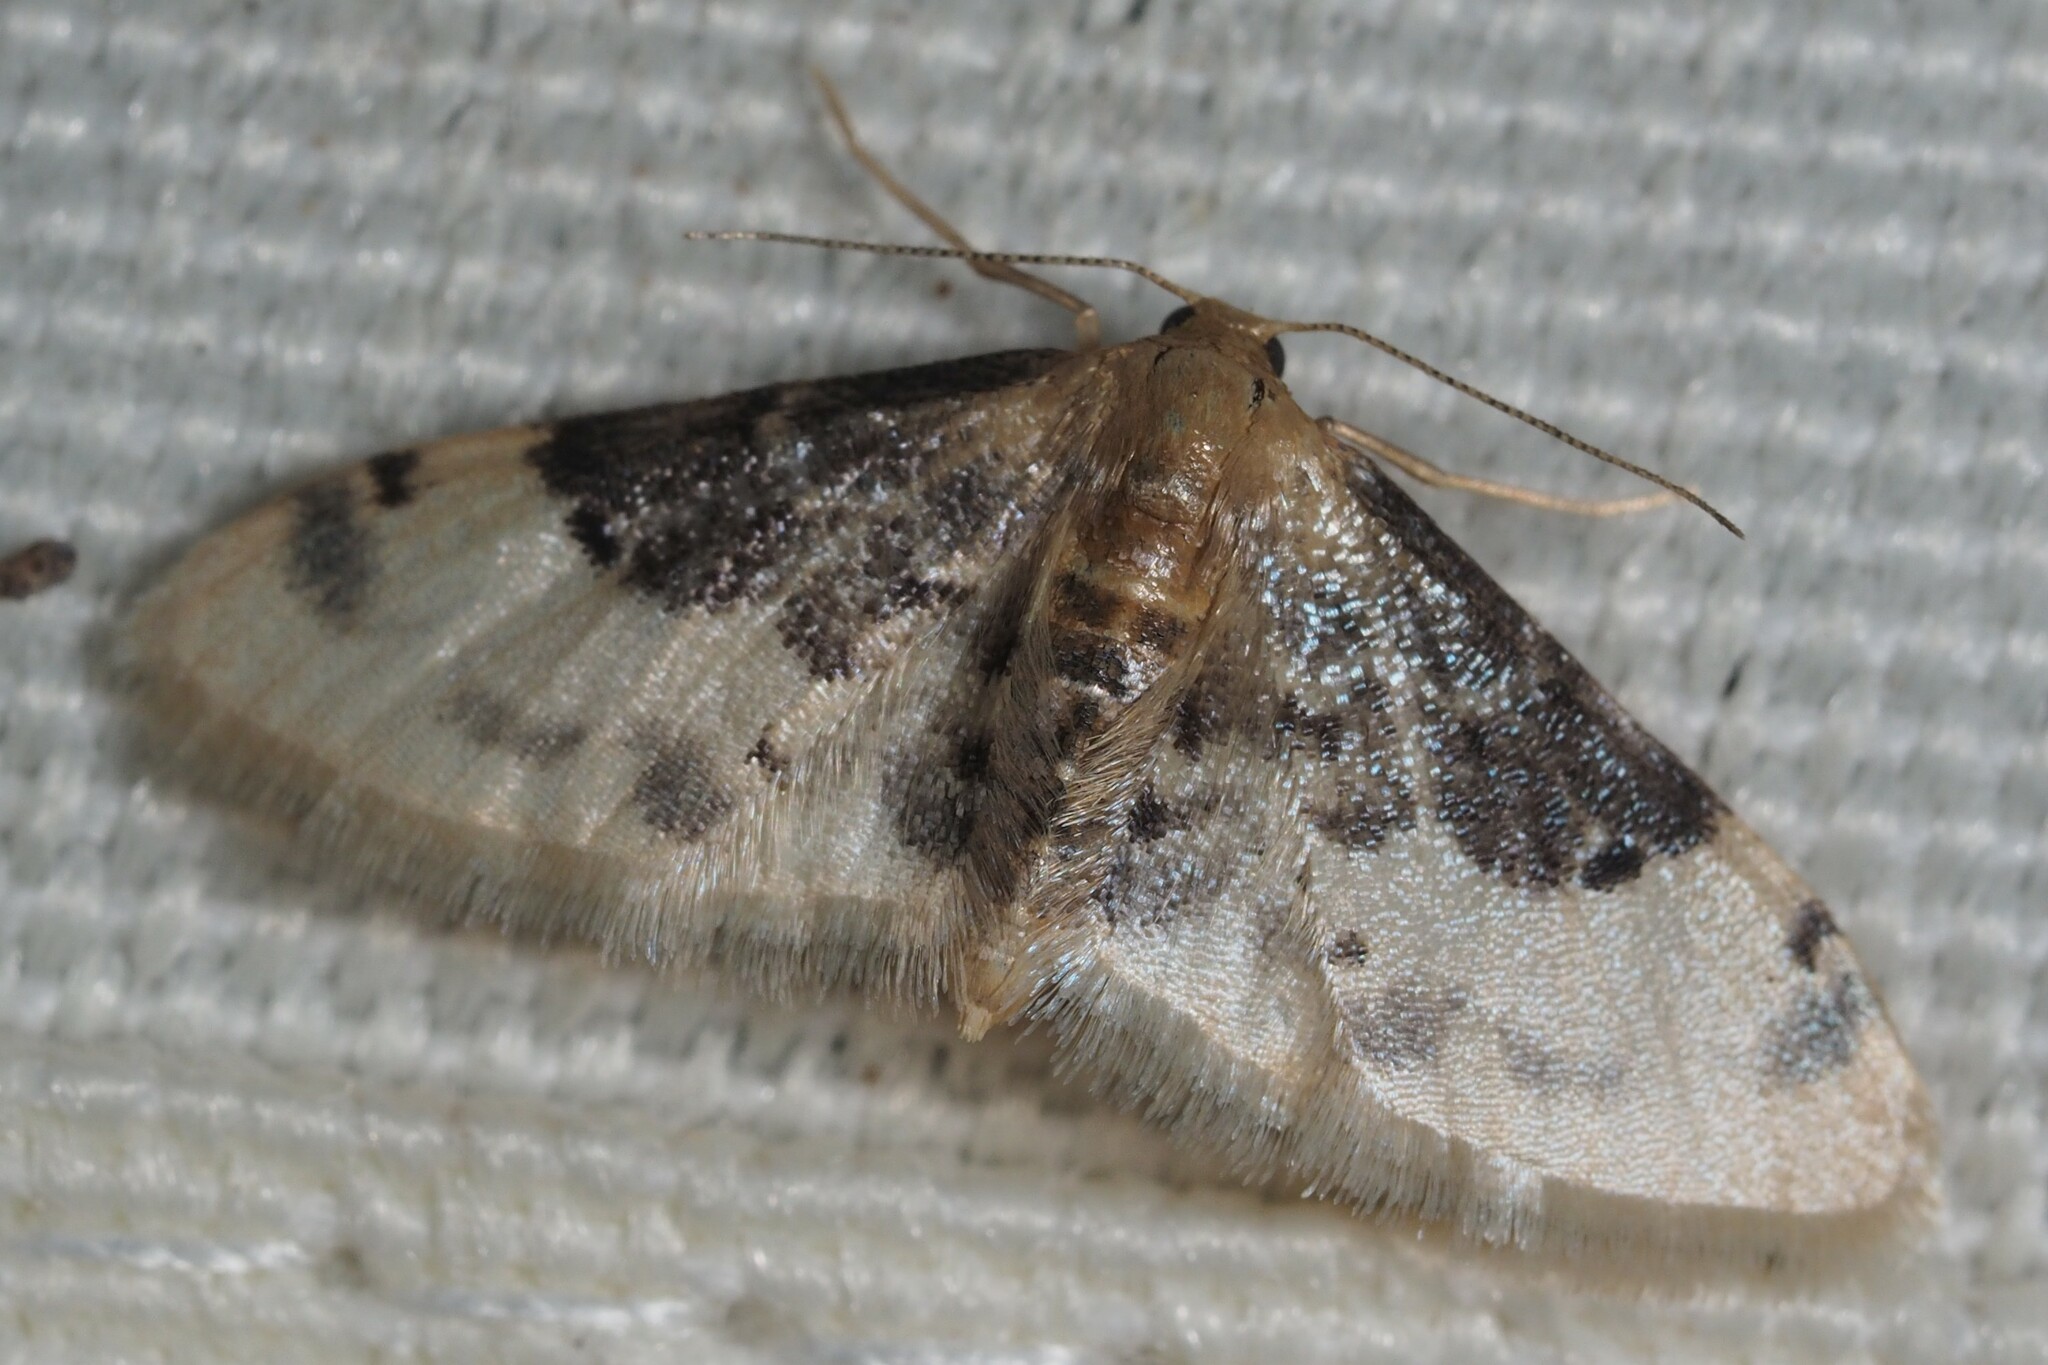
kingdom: Animalia
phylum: Arthropoda
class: Insecta
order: Lepidoptera
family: Geometridae
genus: Idaea
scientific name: Idaea filicata
